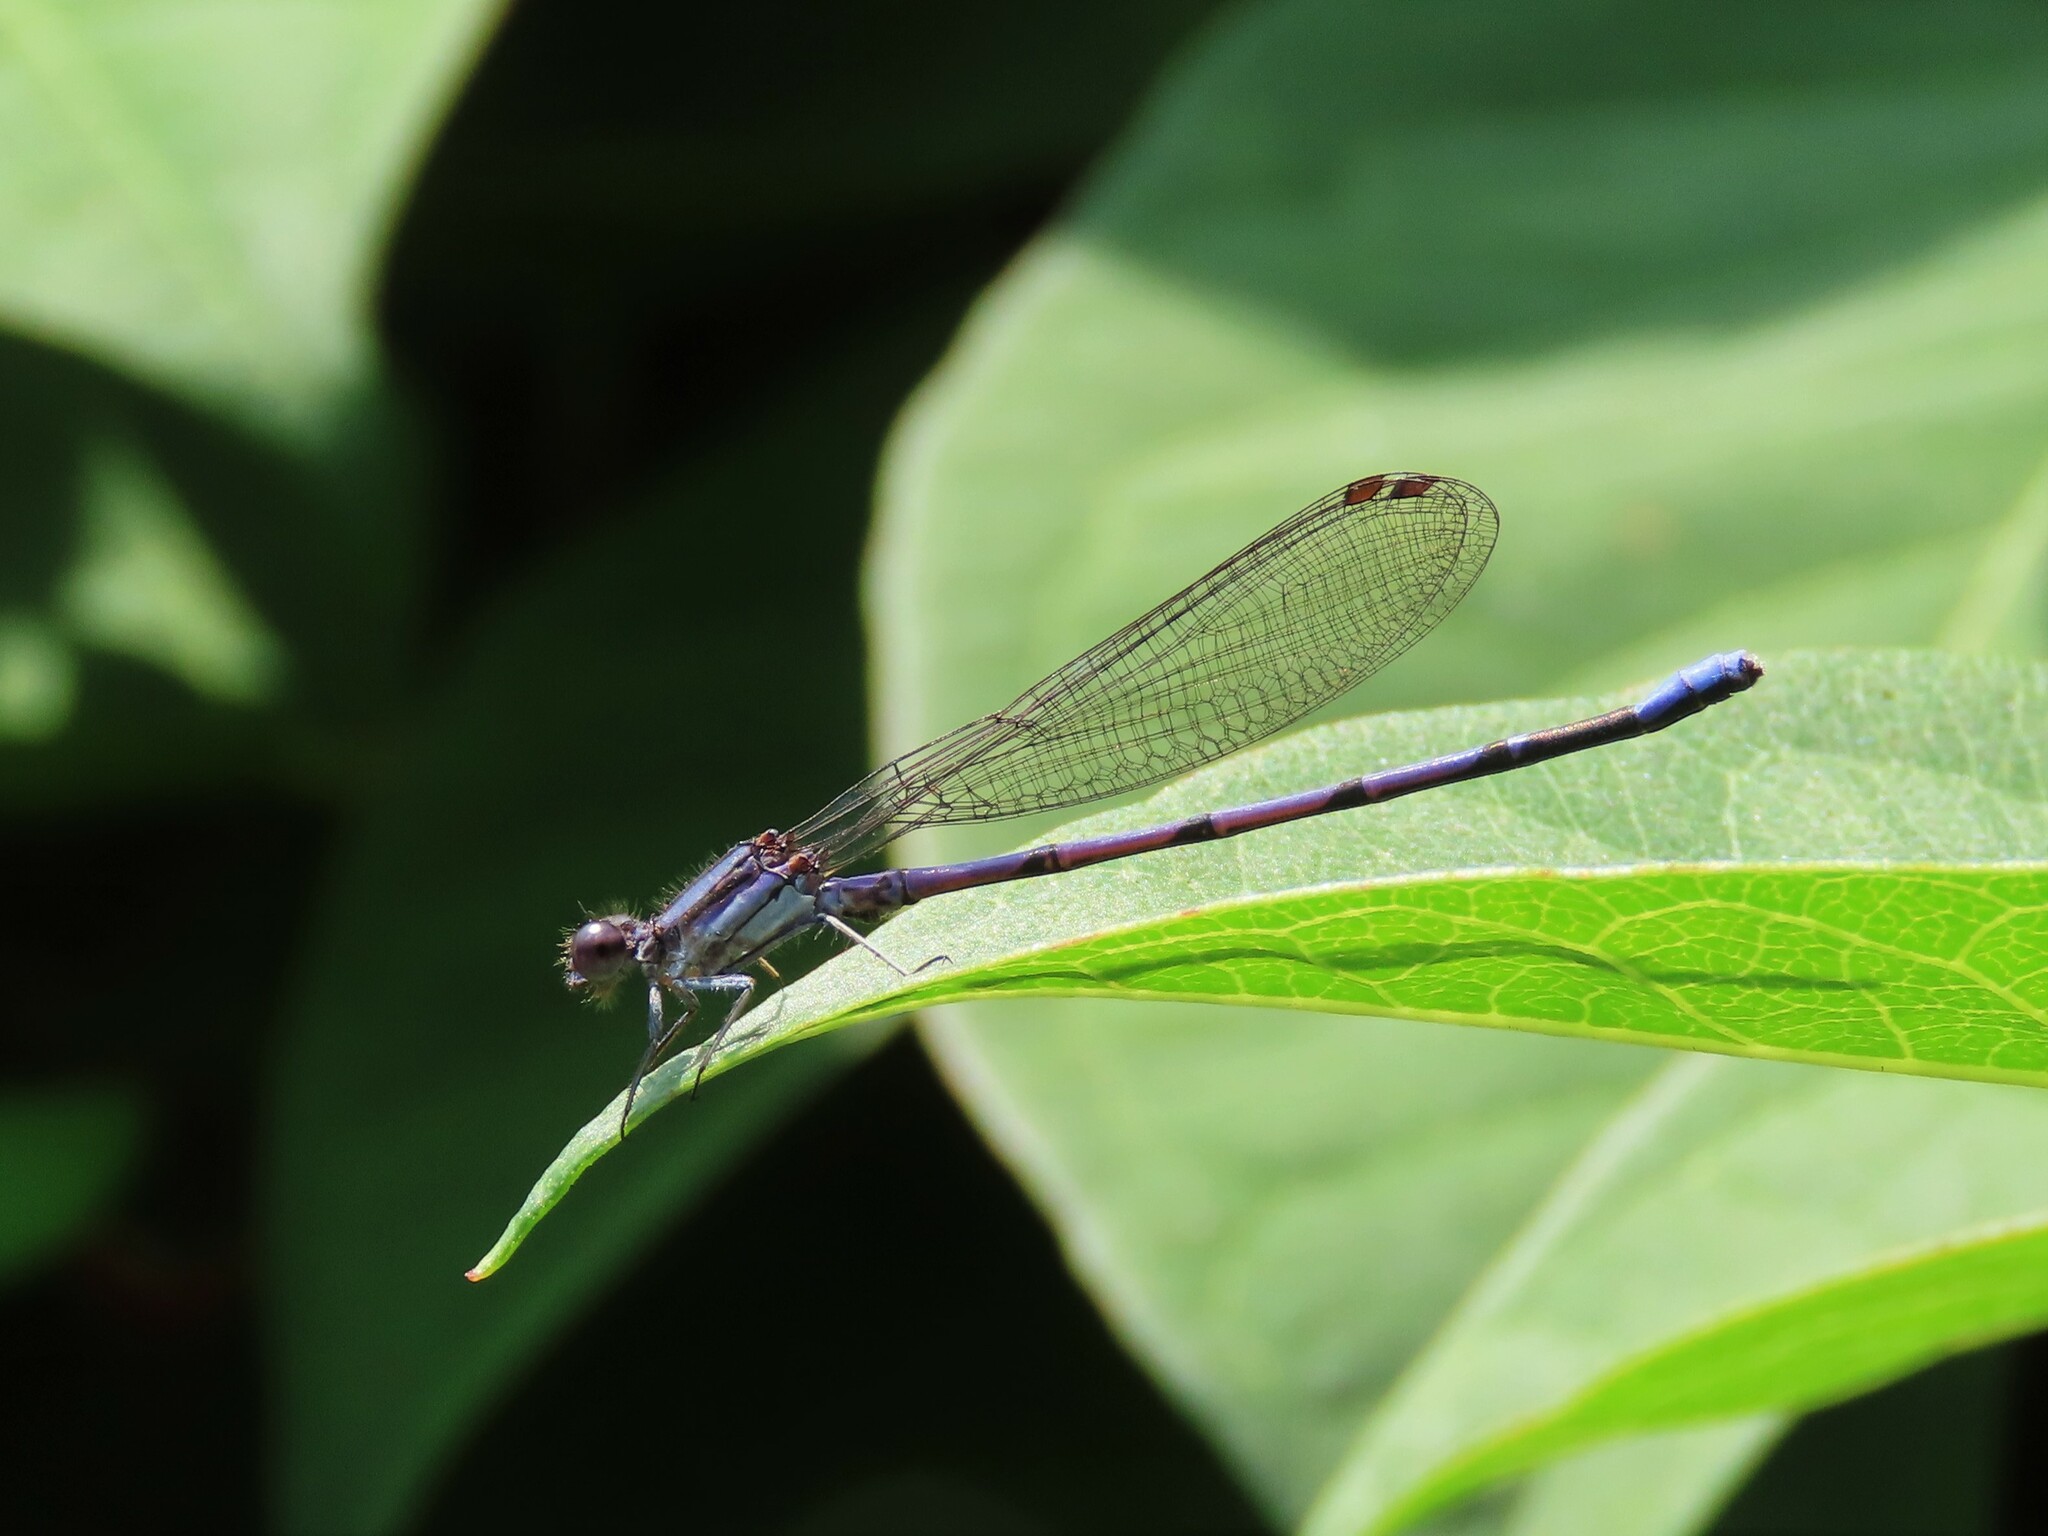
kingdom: Animalia
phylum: Arthropoda
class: Insecta
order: Odonata
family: Coenagrionidae
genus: Argia
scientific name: Argia fumipennis
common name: Variable dancer
